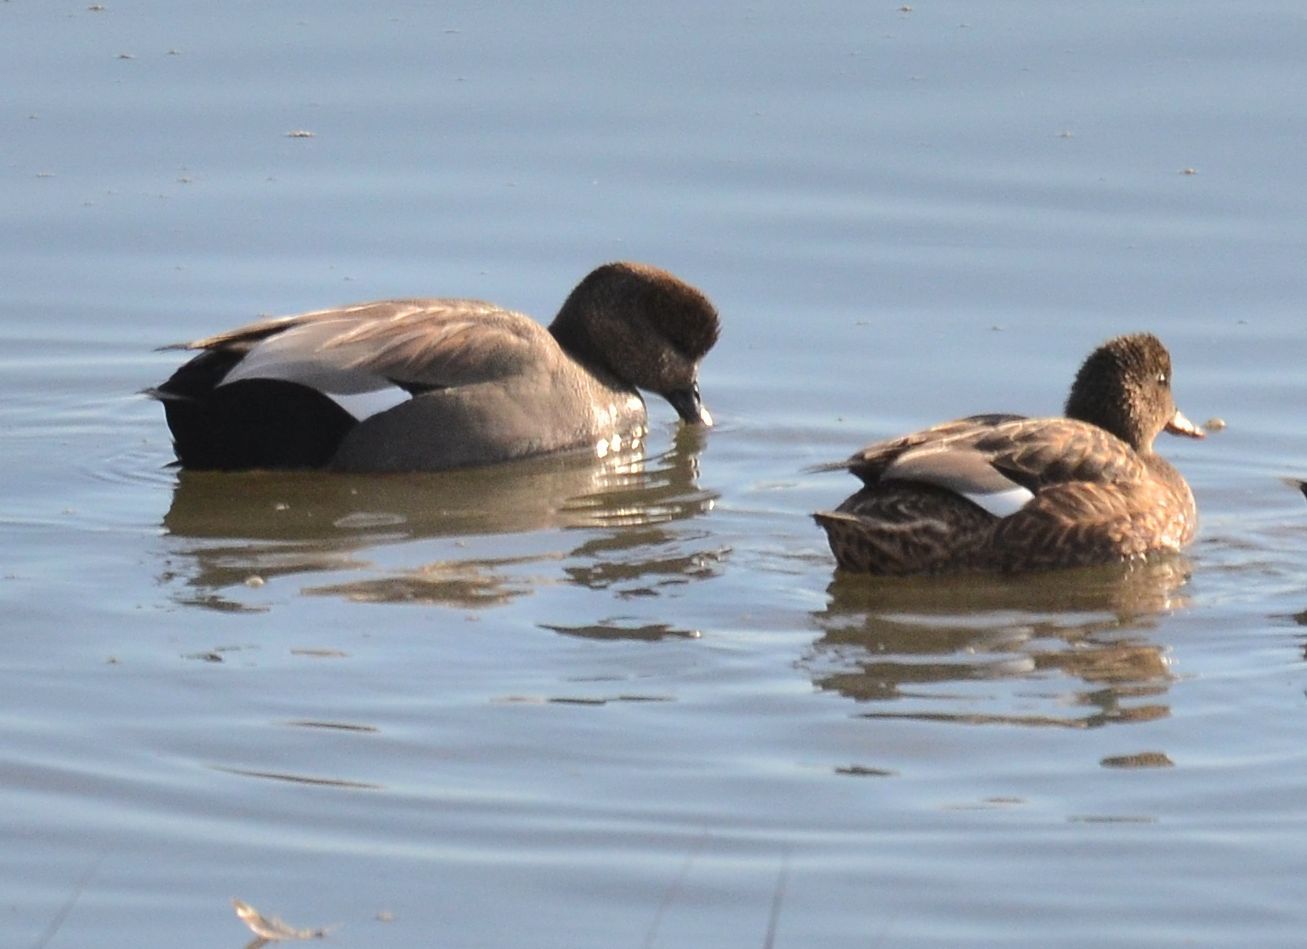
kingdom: Animalia
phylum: Chordata
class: Aves
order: Anseriformes
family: Anatidae
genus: Mareca
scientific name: Mareca strepera
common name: Gadwall
